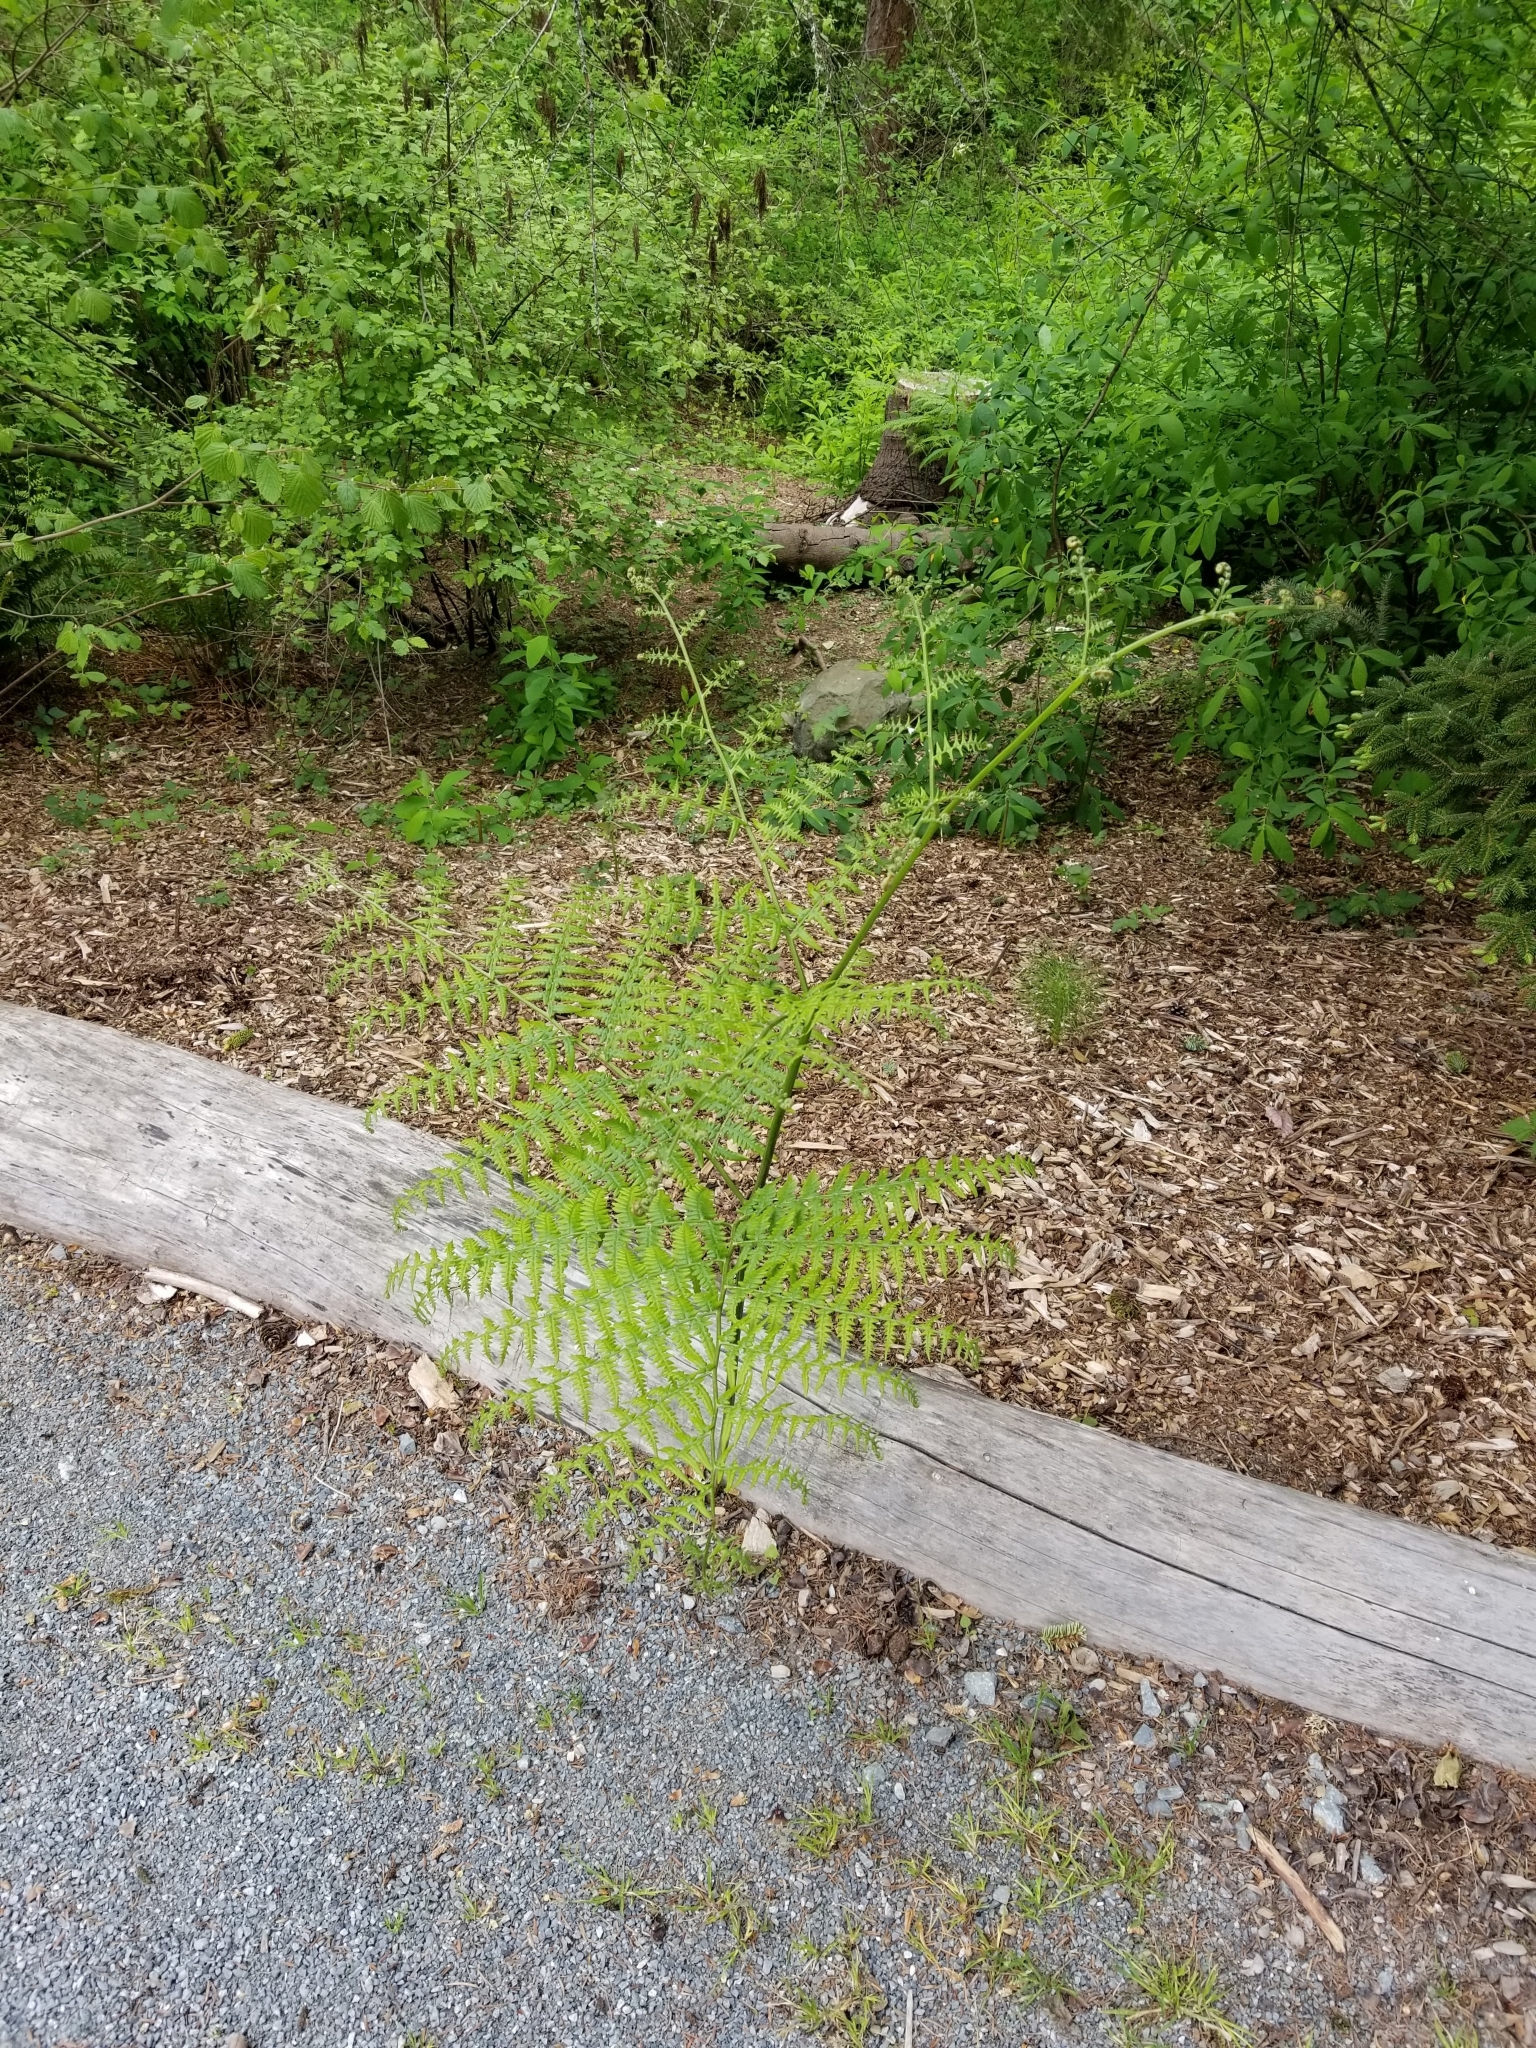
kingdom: Plantae
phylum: Tracheophyta
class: Polypodiopsida
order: Polypodiales
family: Dennstaedtiaceae
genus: Pteridium
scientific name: Pteridium aquilinum
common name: Bracken
